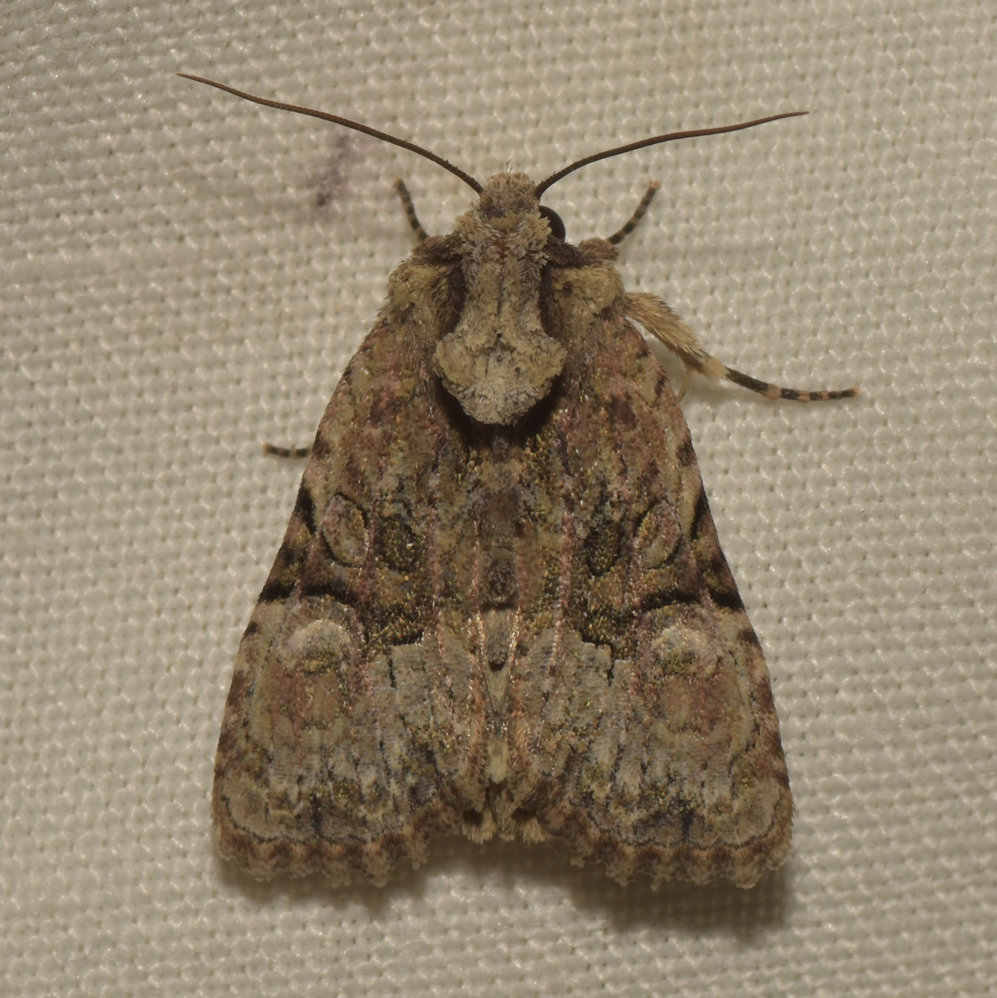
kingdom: Animalia
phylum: Arthropoda
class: Insecta
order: Lepidoptera
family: Noctuidae
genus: Oligia
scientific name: Oligia modica
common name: Black-banded brocade
